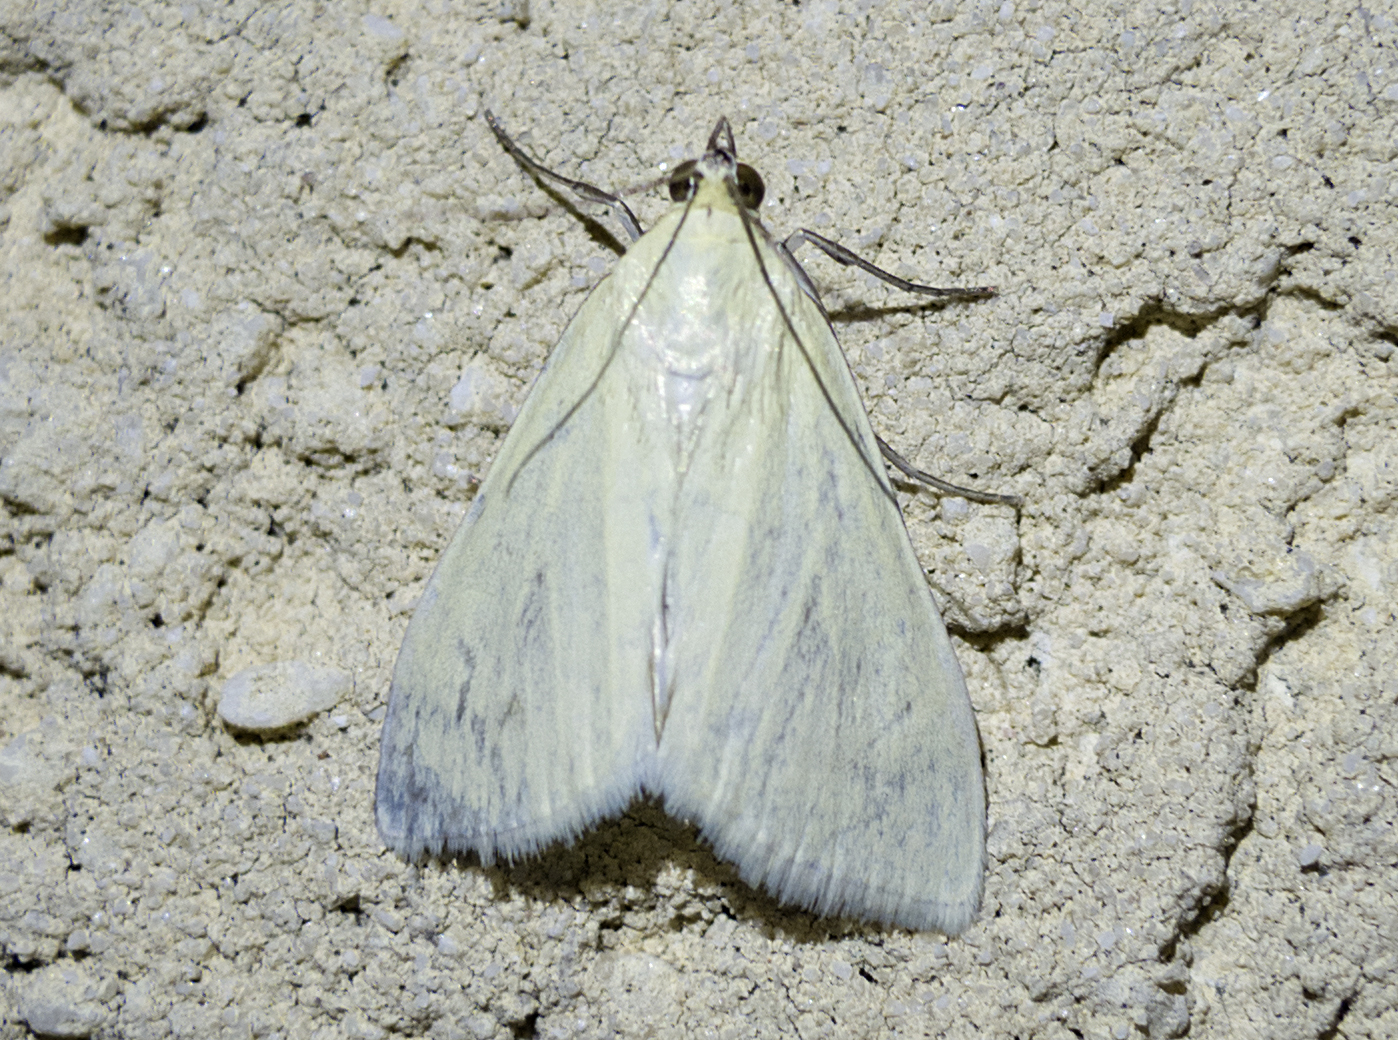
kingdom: Animalia
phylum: Arthropoda
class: Insecta
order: Lepidoptera
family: Crambidae
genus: Sitochroa
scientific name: Sitochroa palealis
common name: Greenish-yellow sitochroa moth
